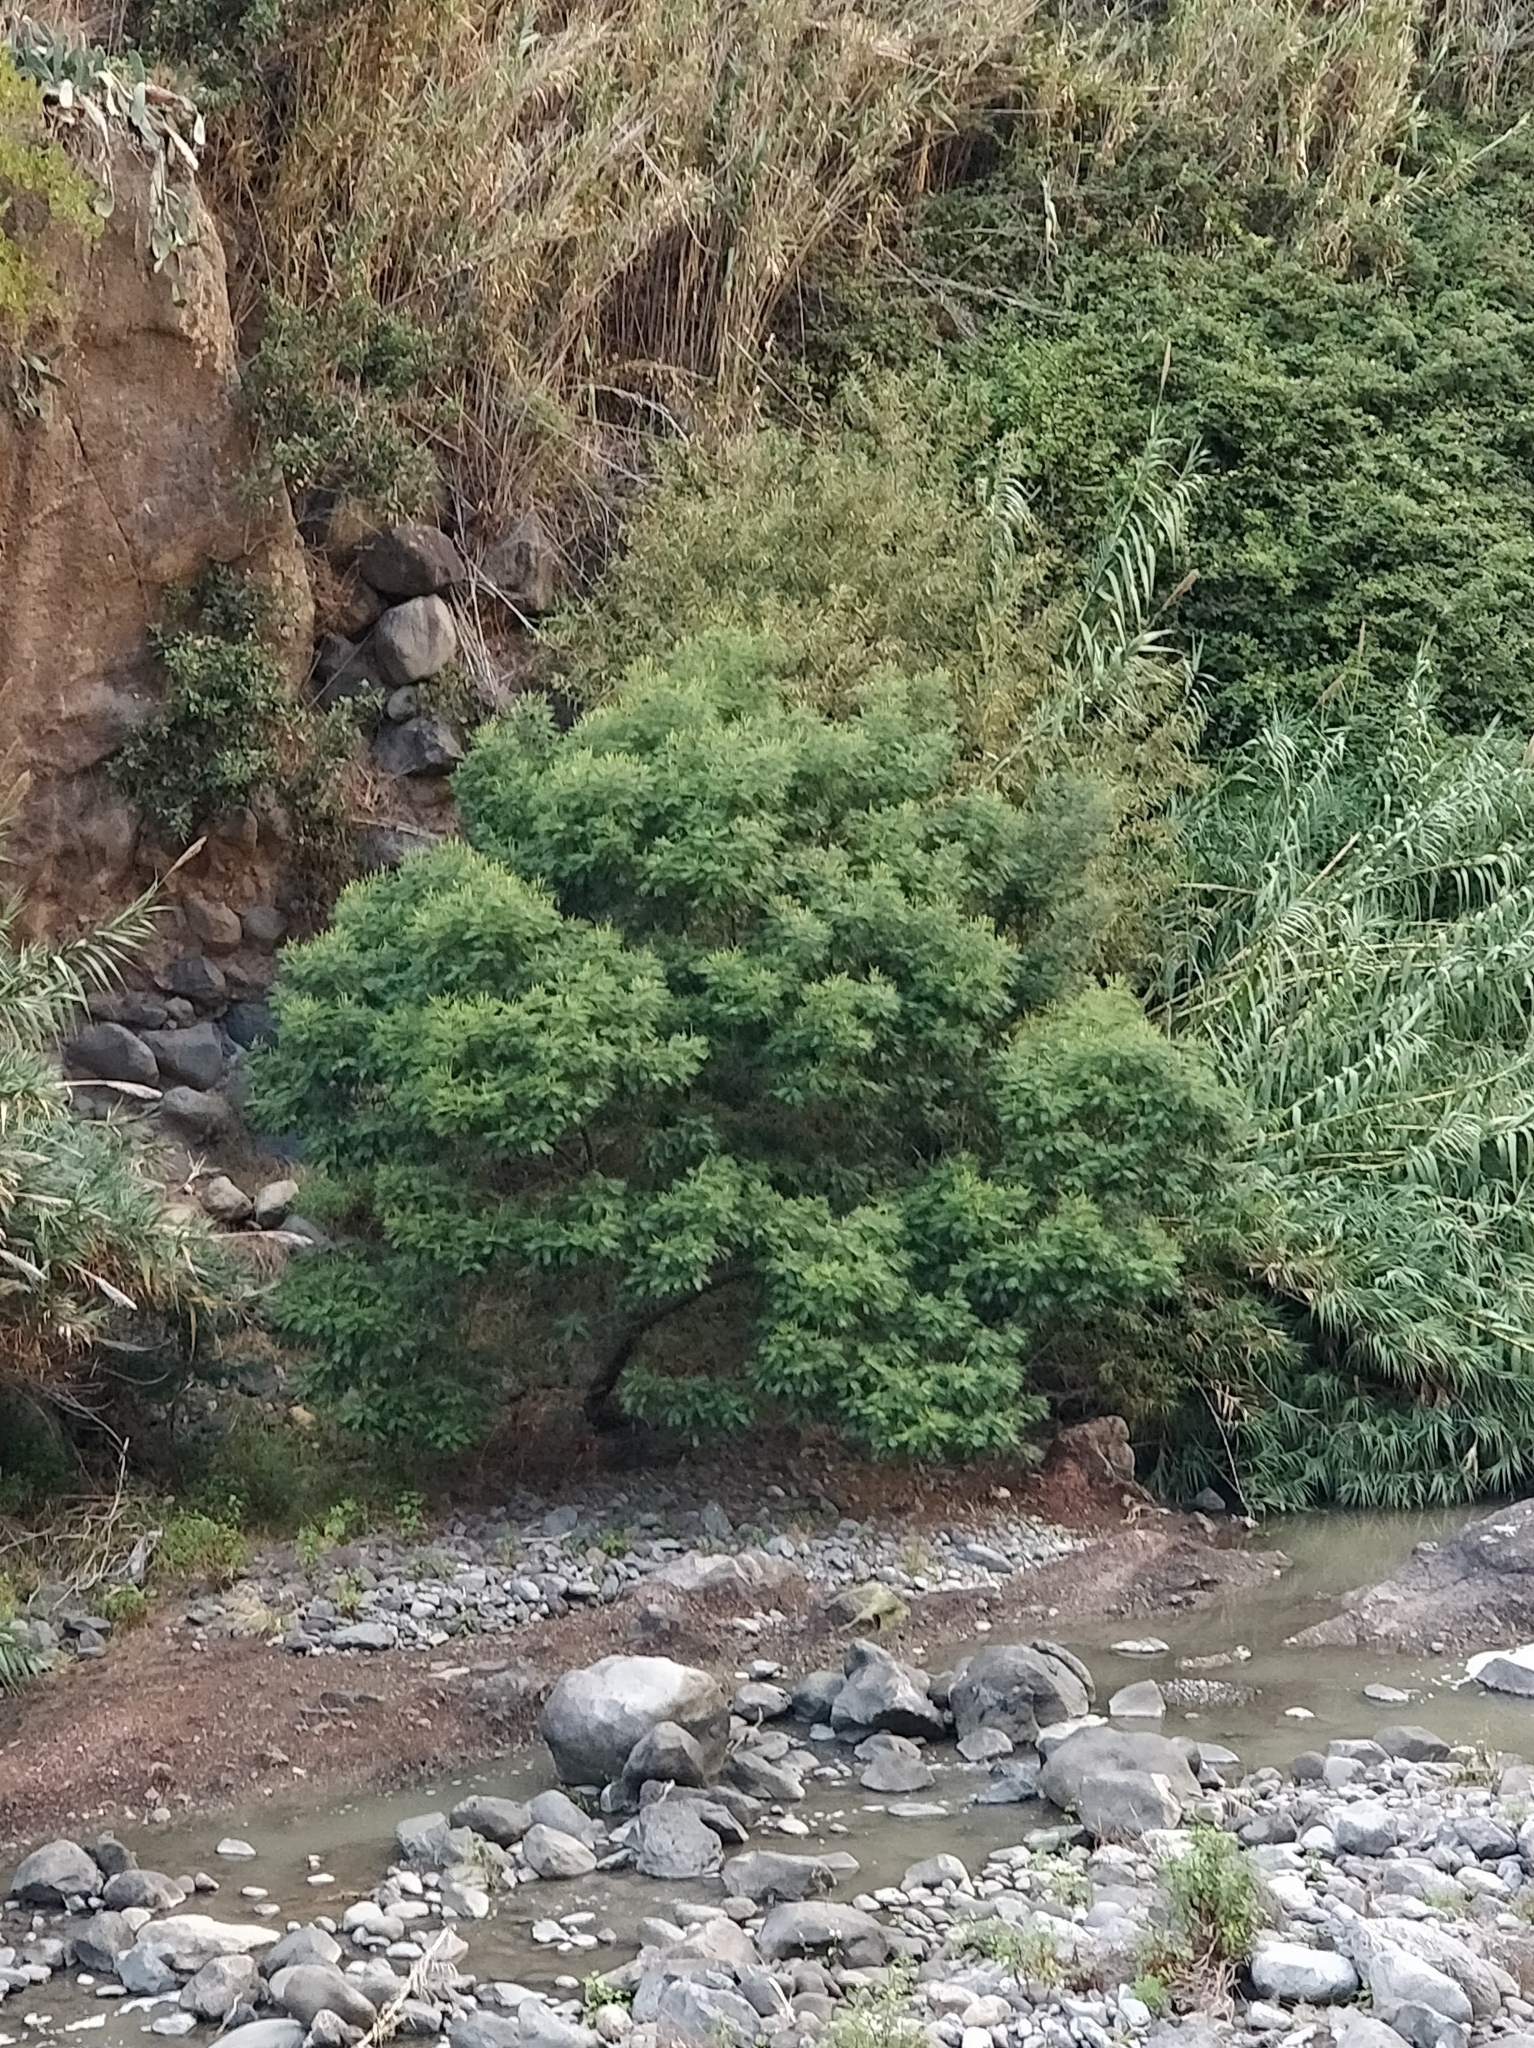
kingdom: Plantae
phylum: Tracheophyta
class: Magnoliopsida
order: Fabales
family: Fabaceae
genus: Acacia
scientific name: Acacia mearnsii
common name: Black wattle
